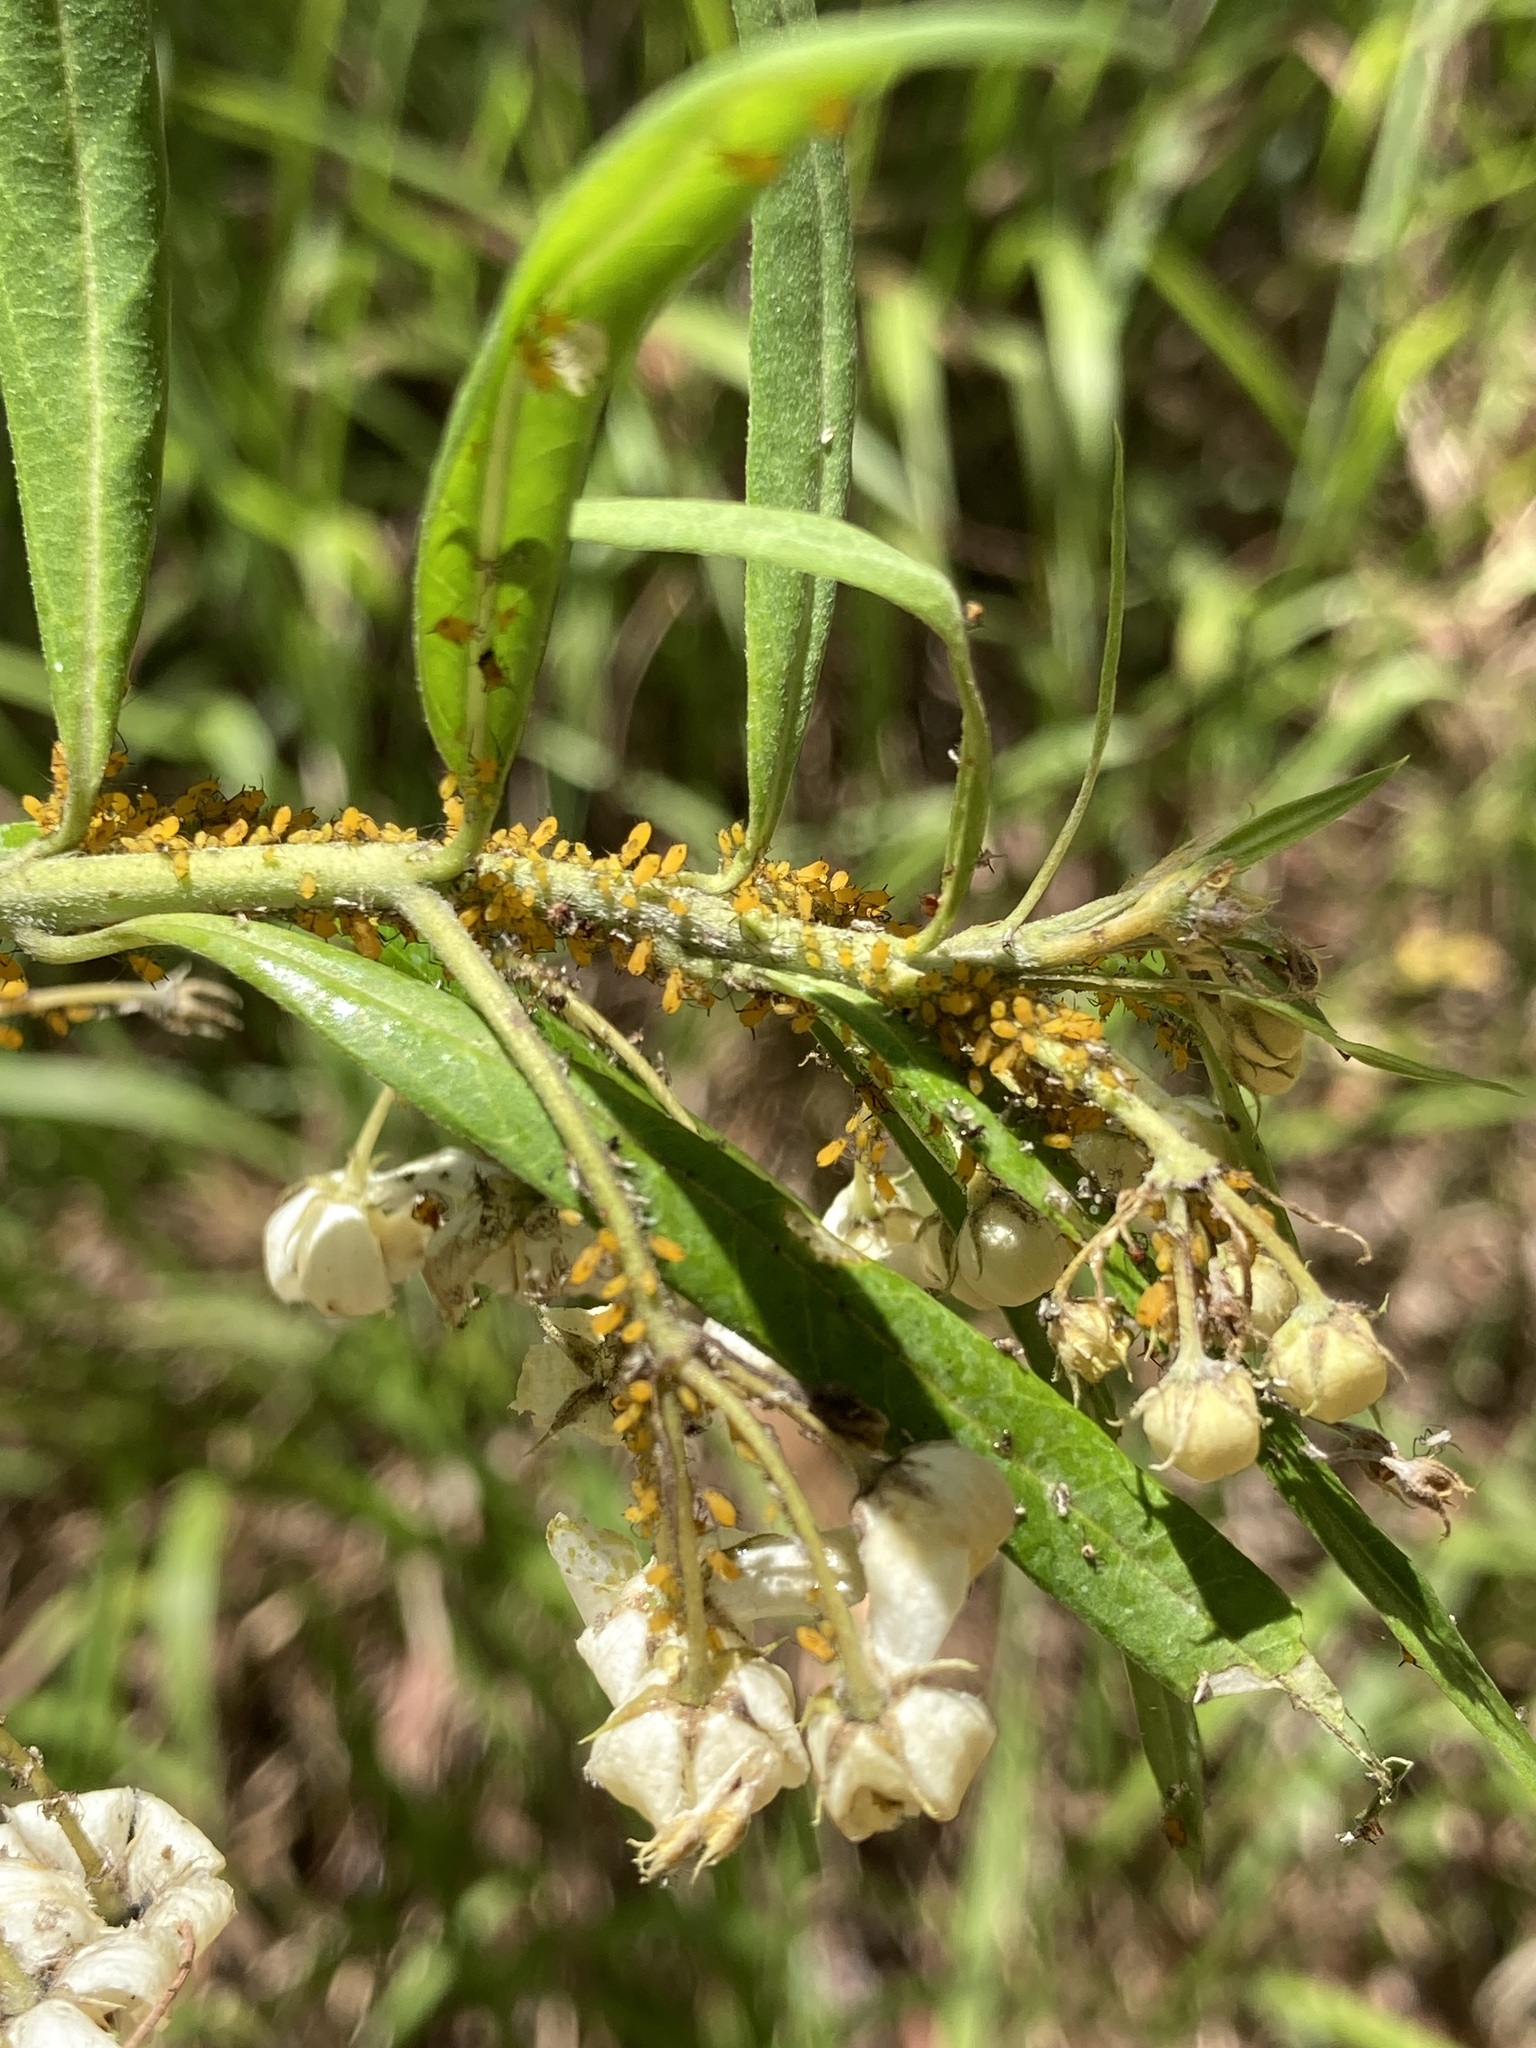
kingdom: Animalia
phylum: Arthropoda
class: Insecta
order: Hemiptera
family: Aphididae
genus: Aphis
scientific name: Aphis nerii
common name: Oleander aphid
